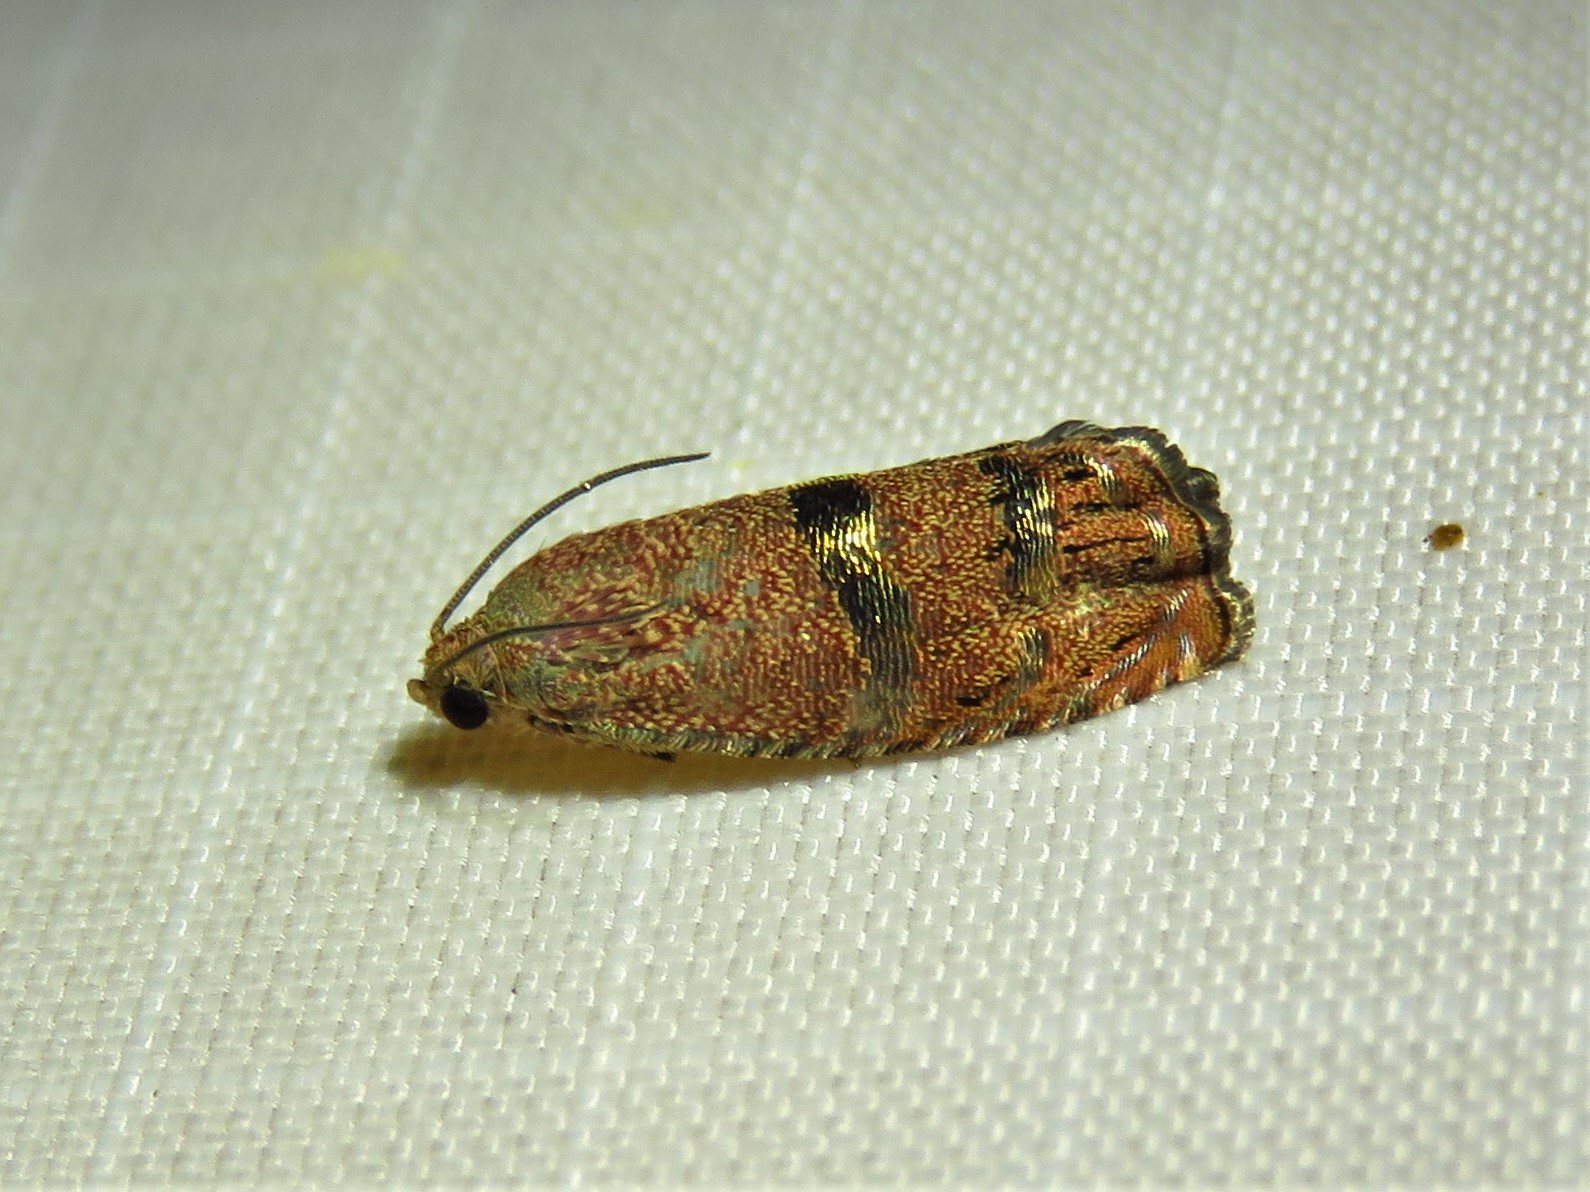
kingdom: Animalia
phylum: Arthropoda
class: Insecta
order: Lepidoptera
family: Tortricidae
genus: Cydia
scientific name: Cydia latiferreana
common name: Filbertworm moth
